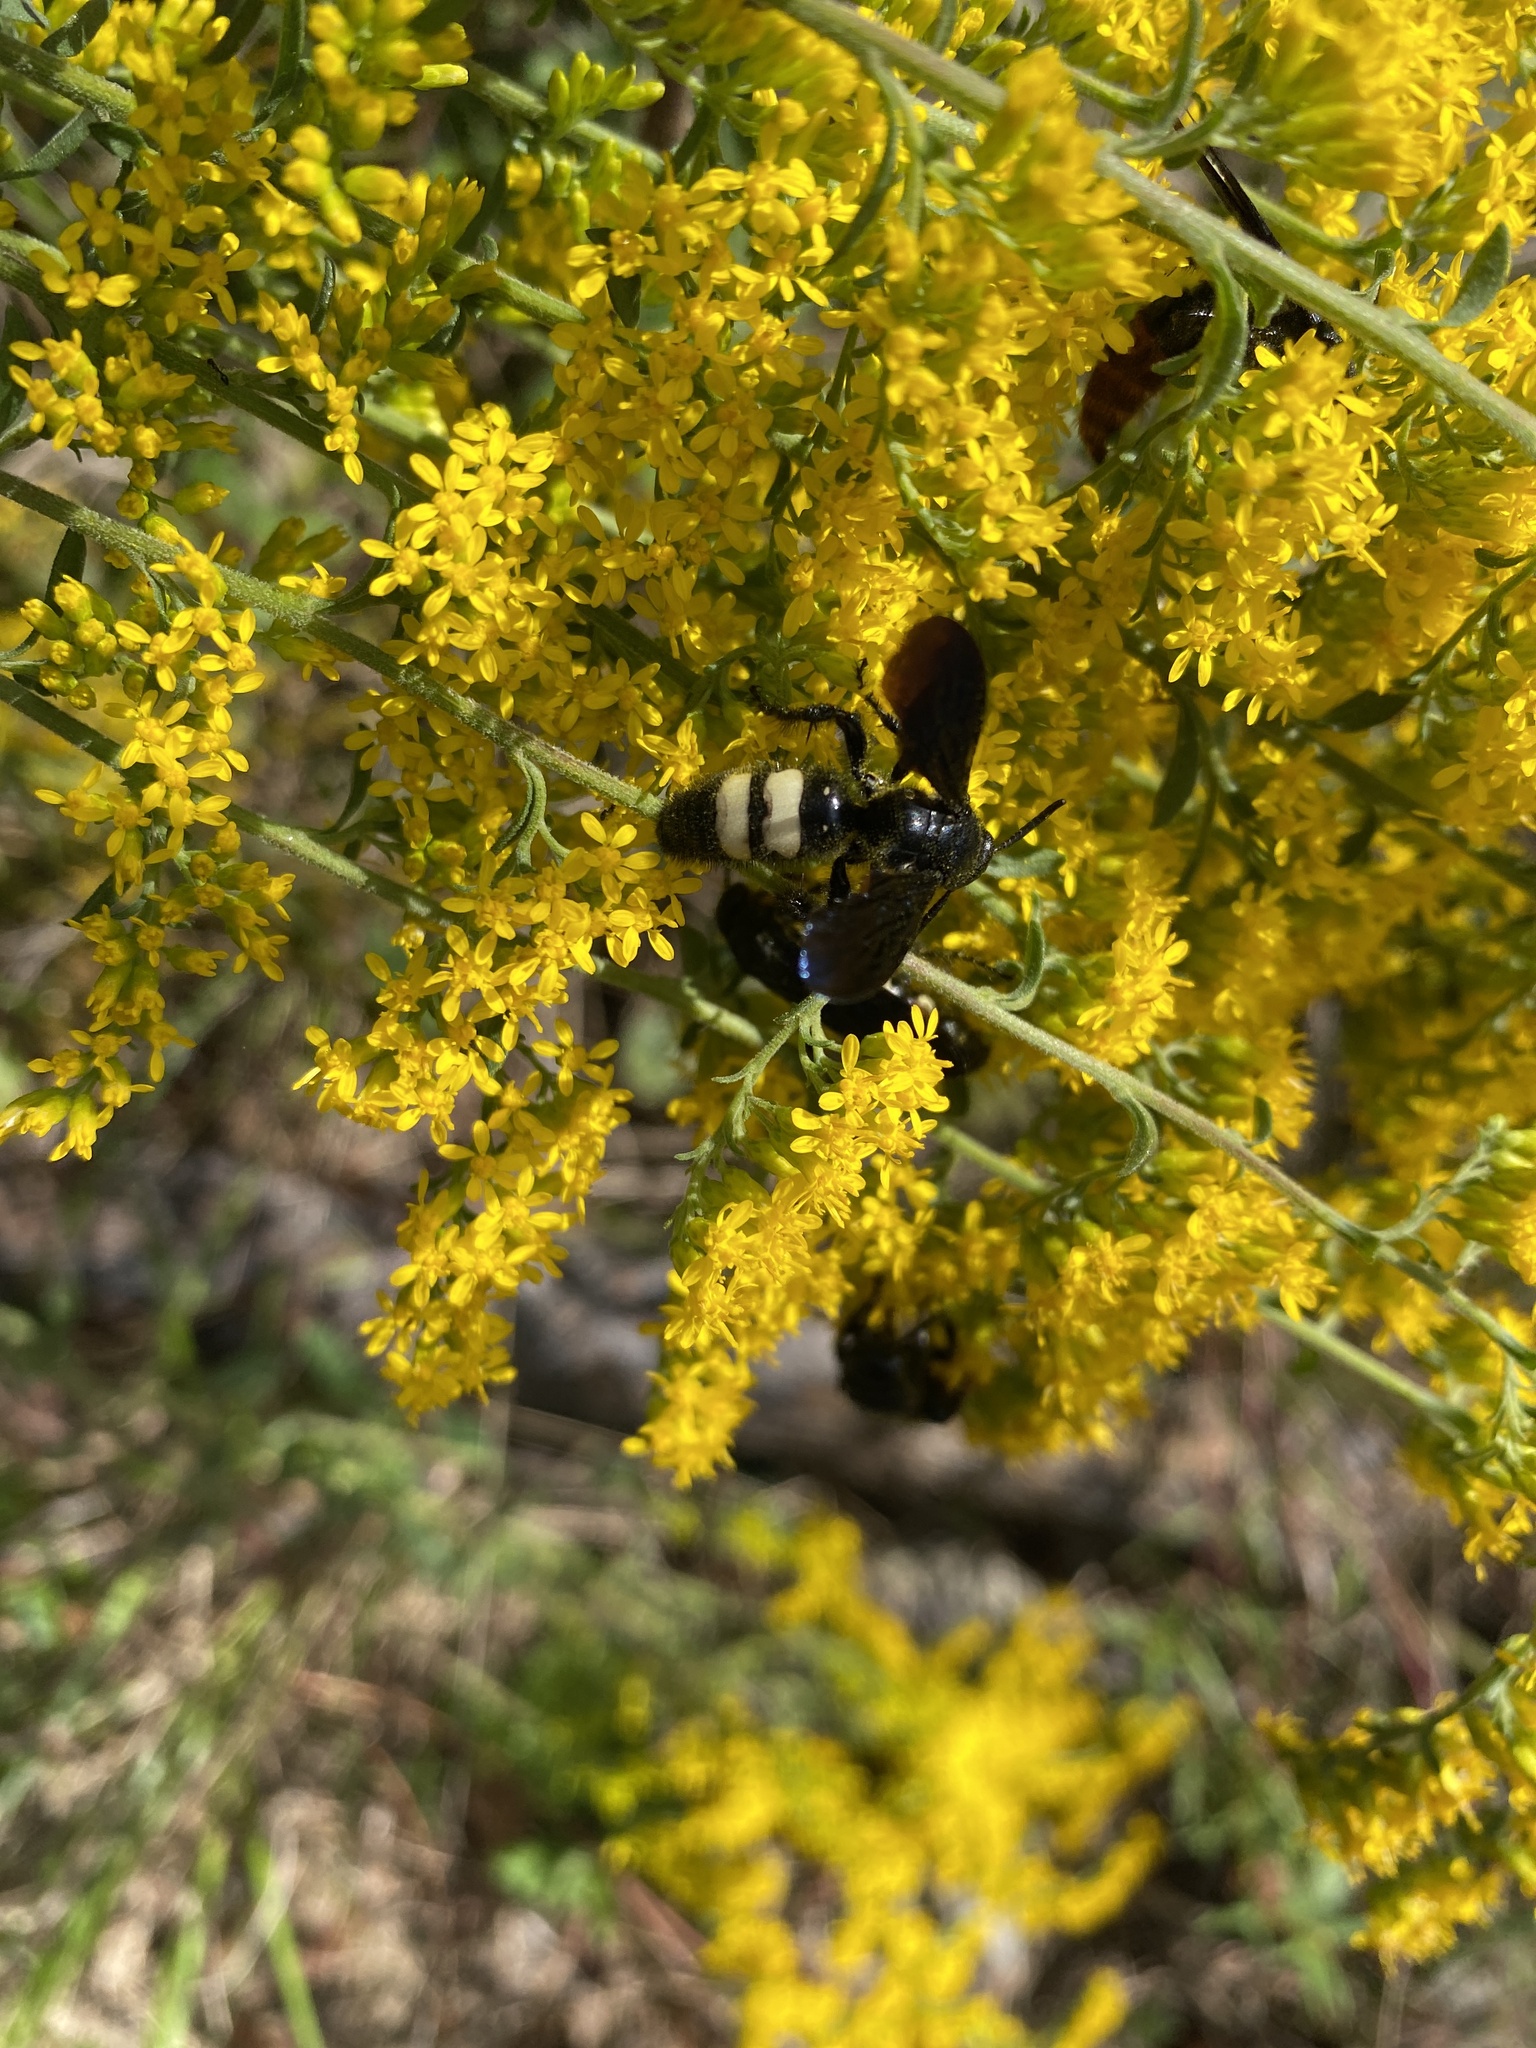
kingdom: Animalia
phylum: Arthropoda
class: Insecta
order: Hymenoptera
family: Scoliidae
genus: Scolia
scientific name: Scolia bicincta
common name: Double-banded scoliid wasp
